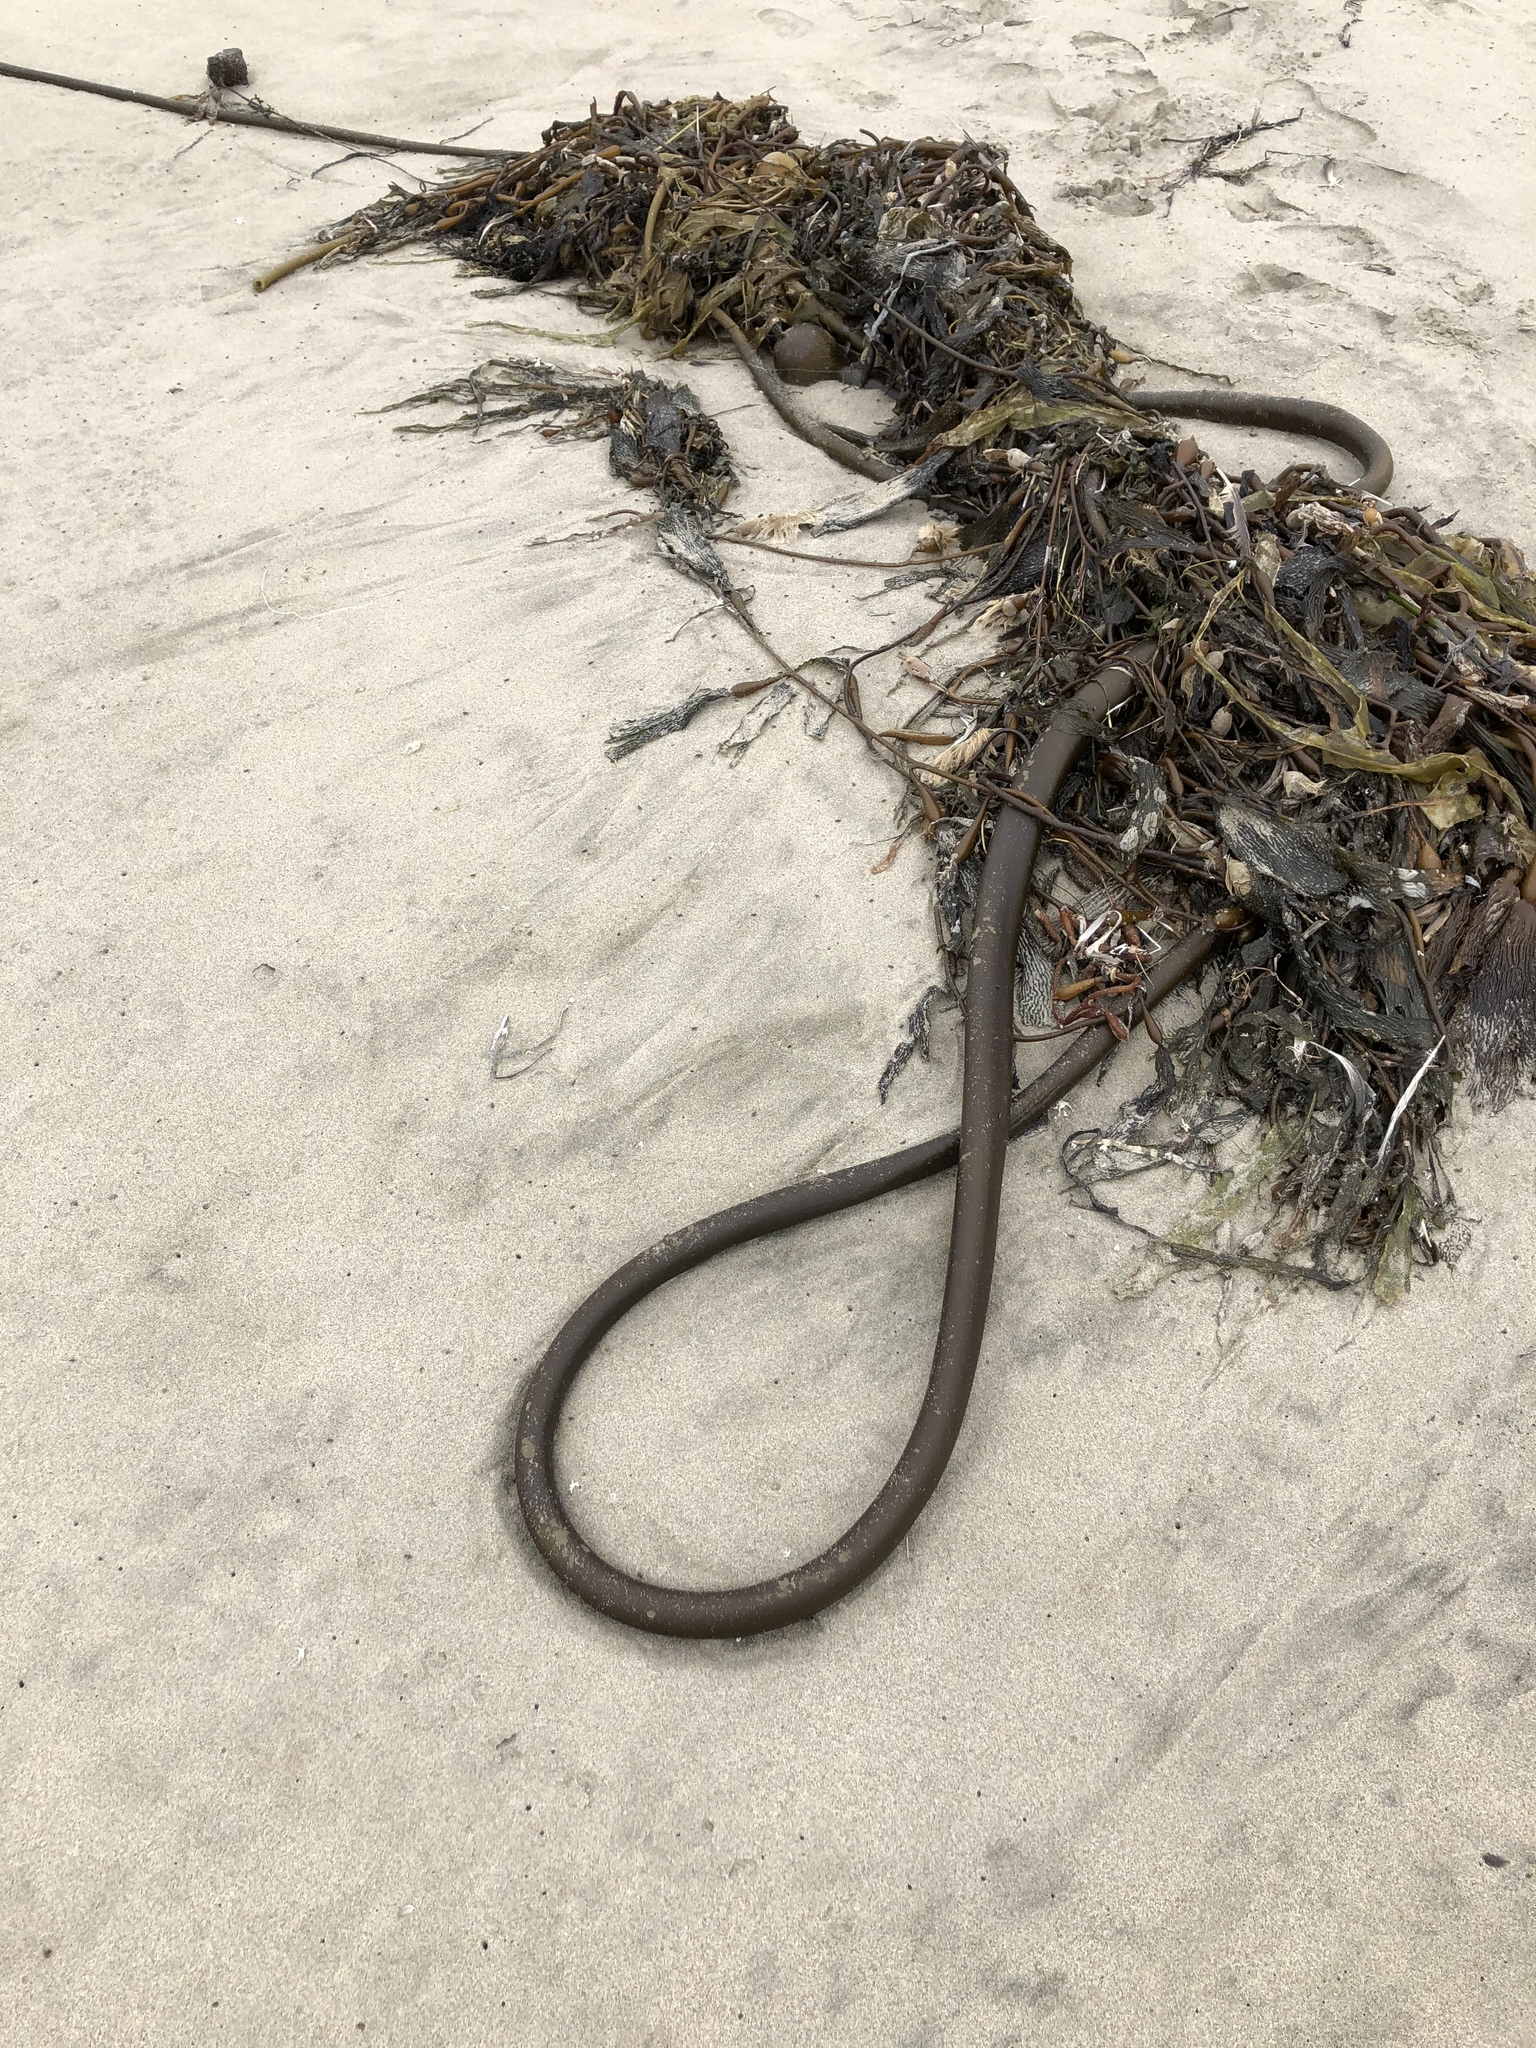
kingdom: Chromista
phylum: Ochrophyta
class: Phaeophyceae
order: Laminariales
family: Laminariaceae
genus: Nereocystis
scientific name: Nereocystis luetkeana
